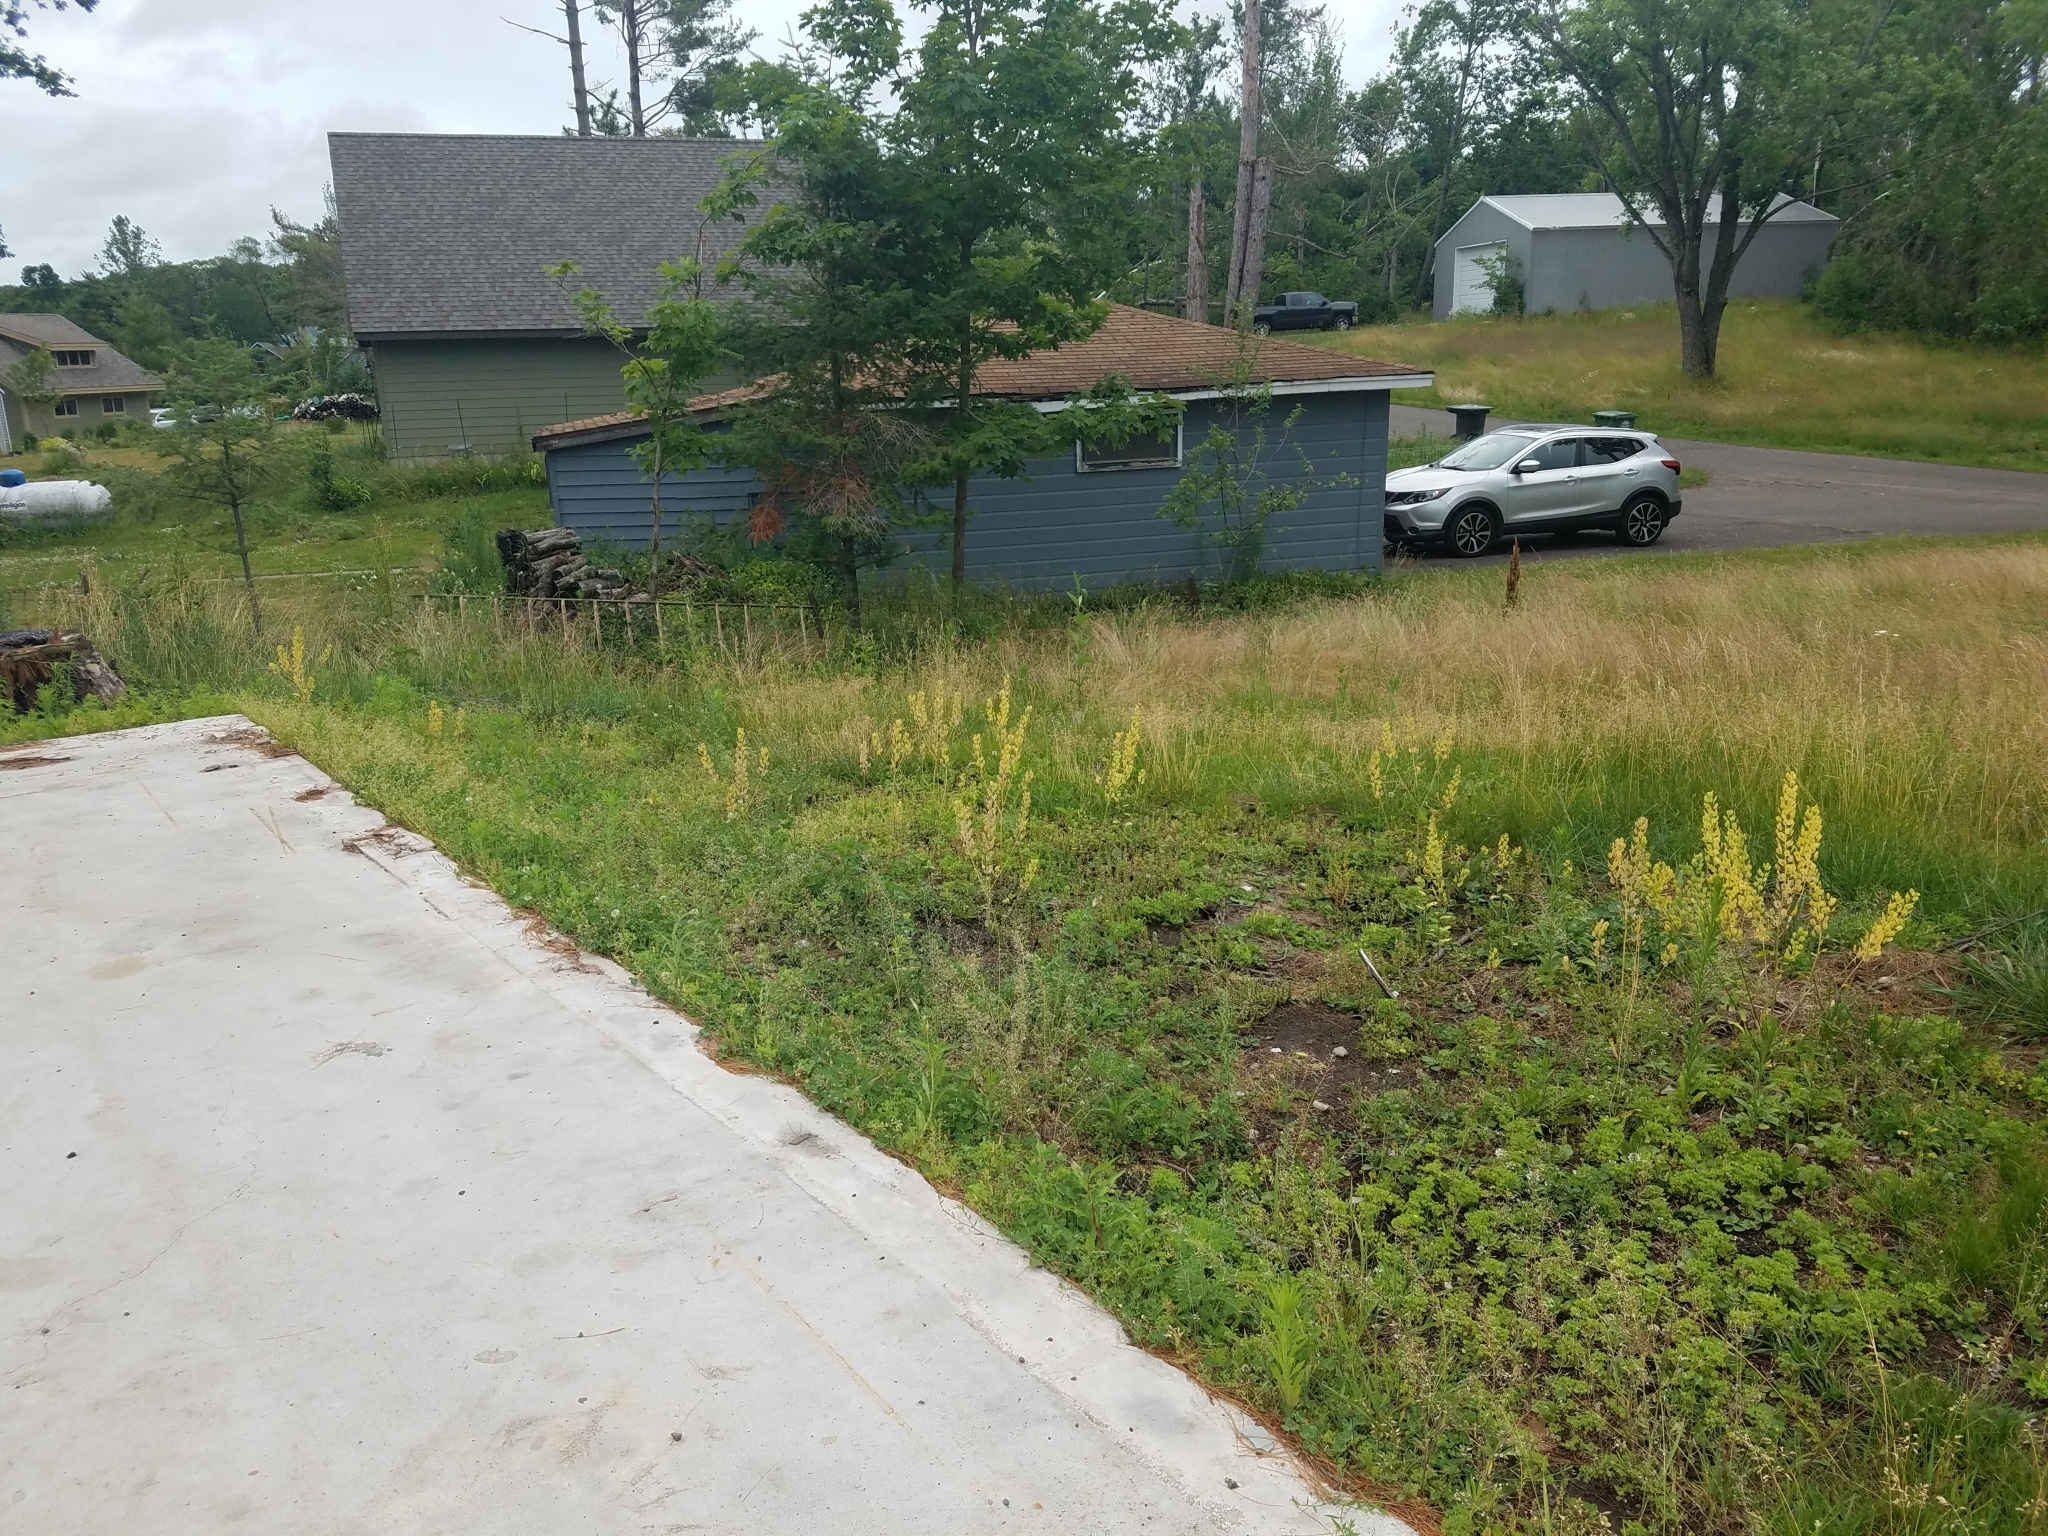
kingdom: Plantae
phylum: Tracheophyta
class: Magnoliopsida
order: Brassicales
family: Brassicaceae
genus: Thlaspi
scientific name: Thlaspi arvense
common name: Field pennycress
